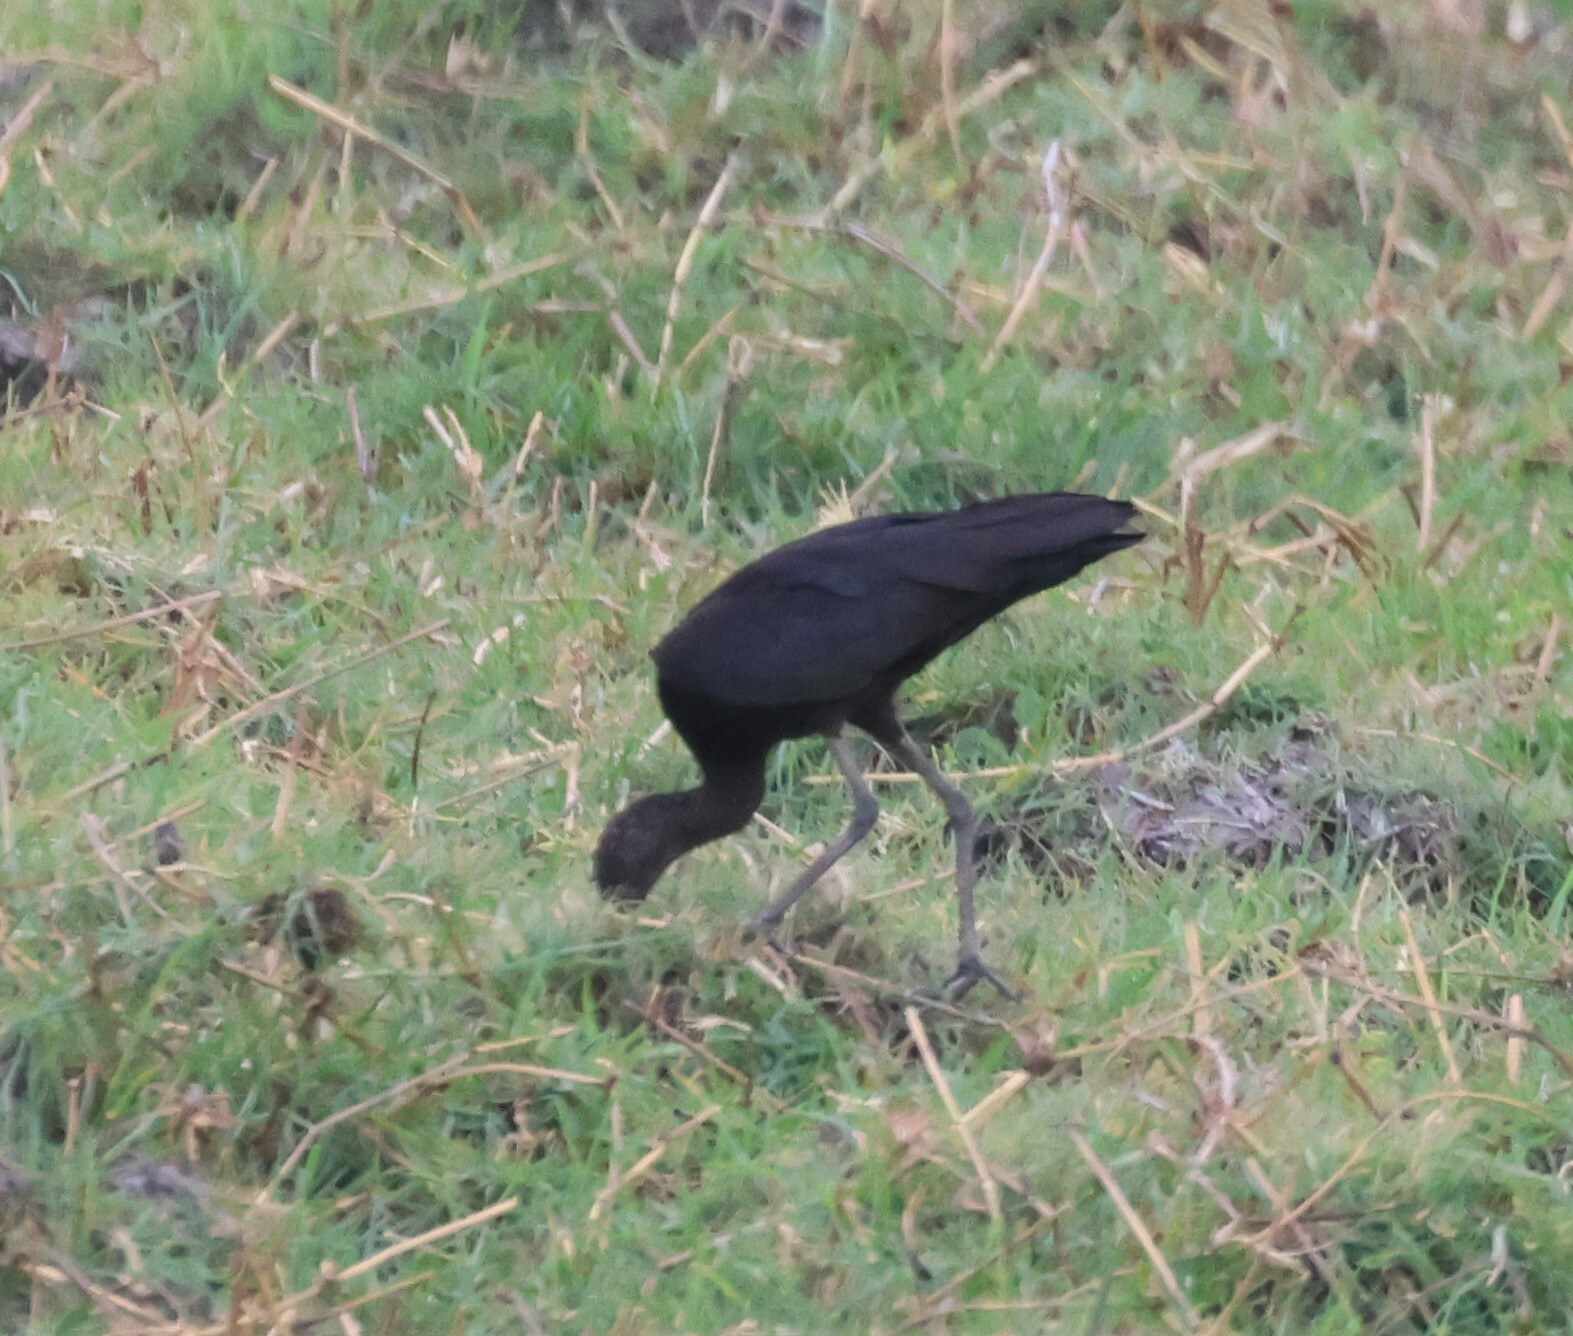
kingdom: Animalia
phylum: Chordata
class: Aves
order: Ciconiiformes
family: Ciconiidae
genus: Anastomus
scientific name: Anastomus lamelligerus
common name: African openbill
